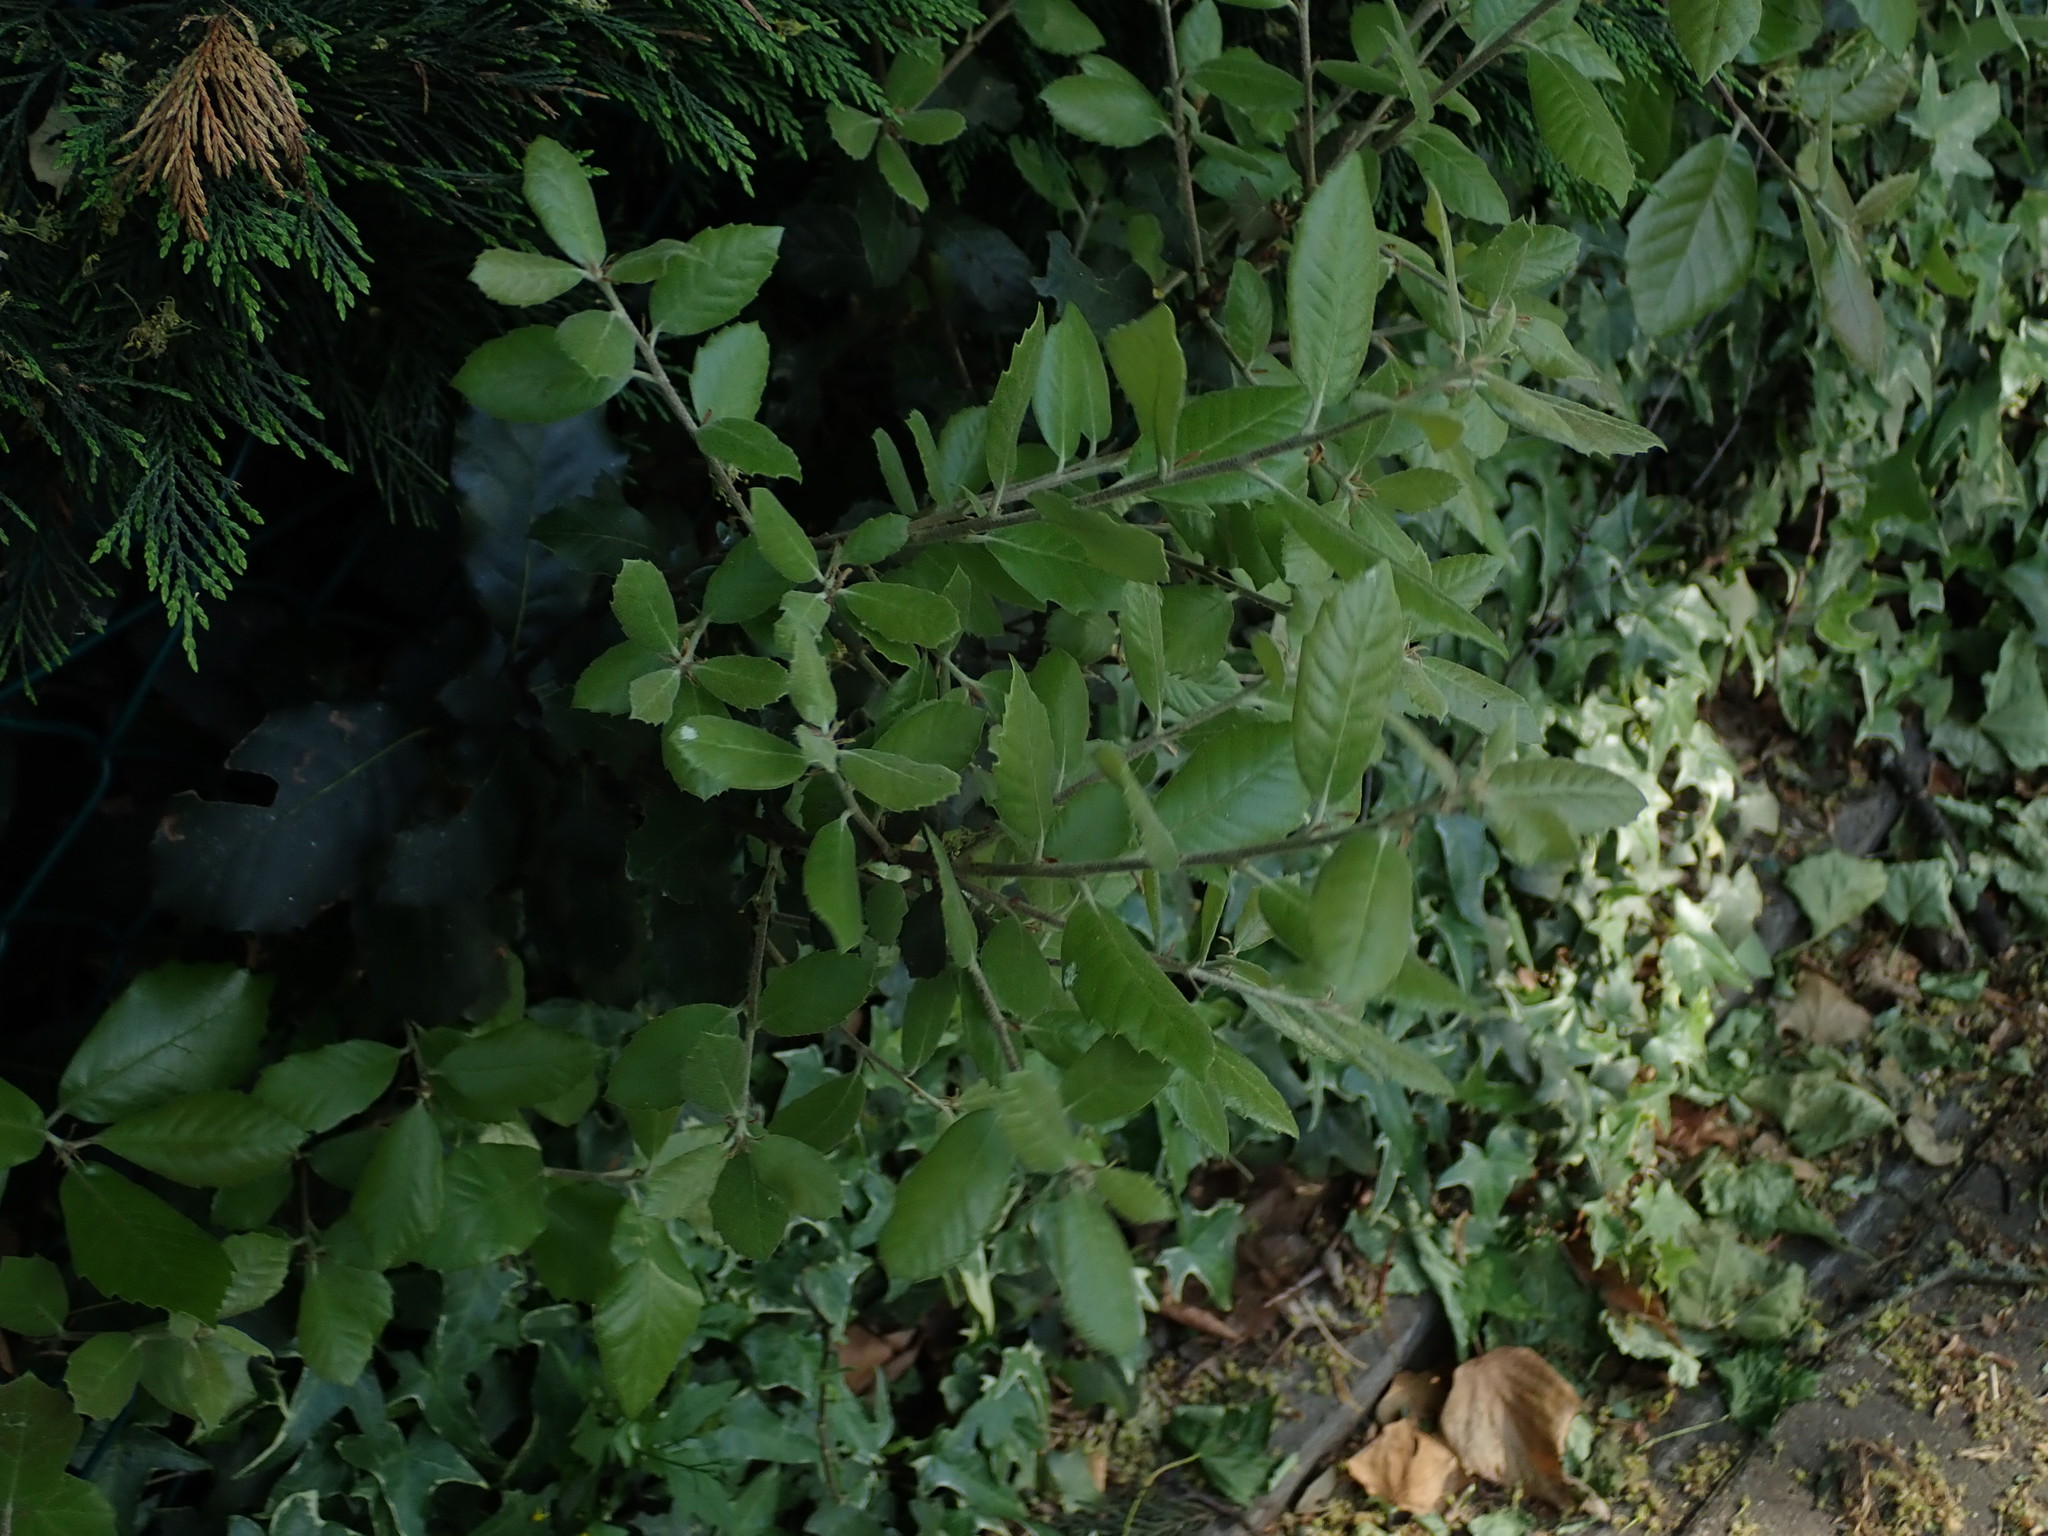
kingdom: Plantae
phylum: Tracheophyta
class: Magnoliopsida
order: Fagales
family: Fagaceae
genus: Quercus
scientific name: Quercus ilex
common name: Evergreen oak
